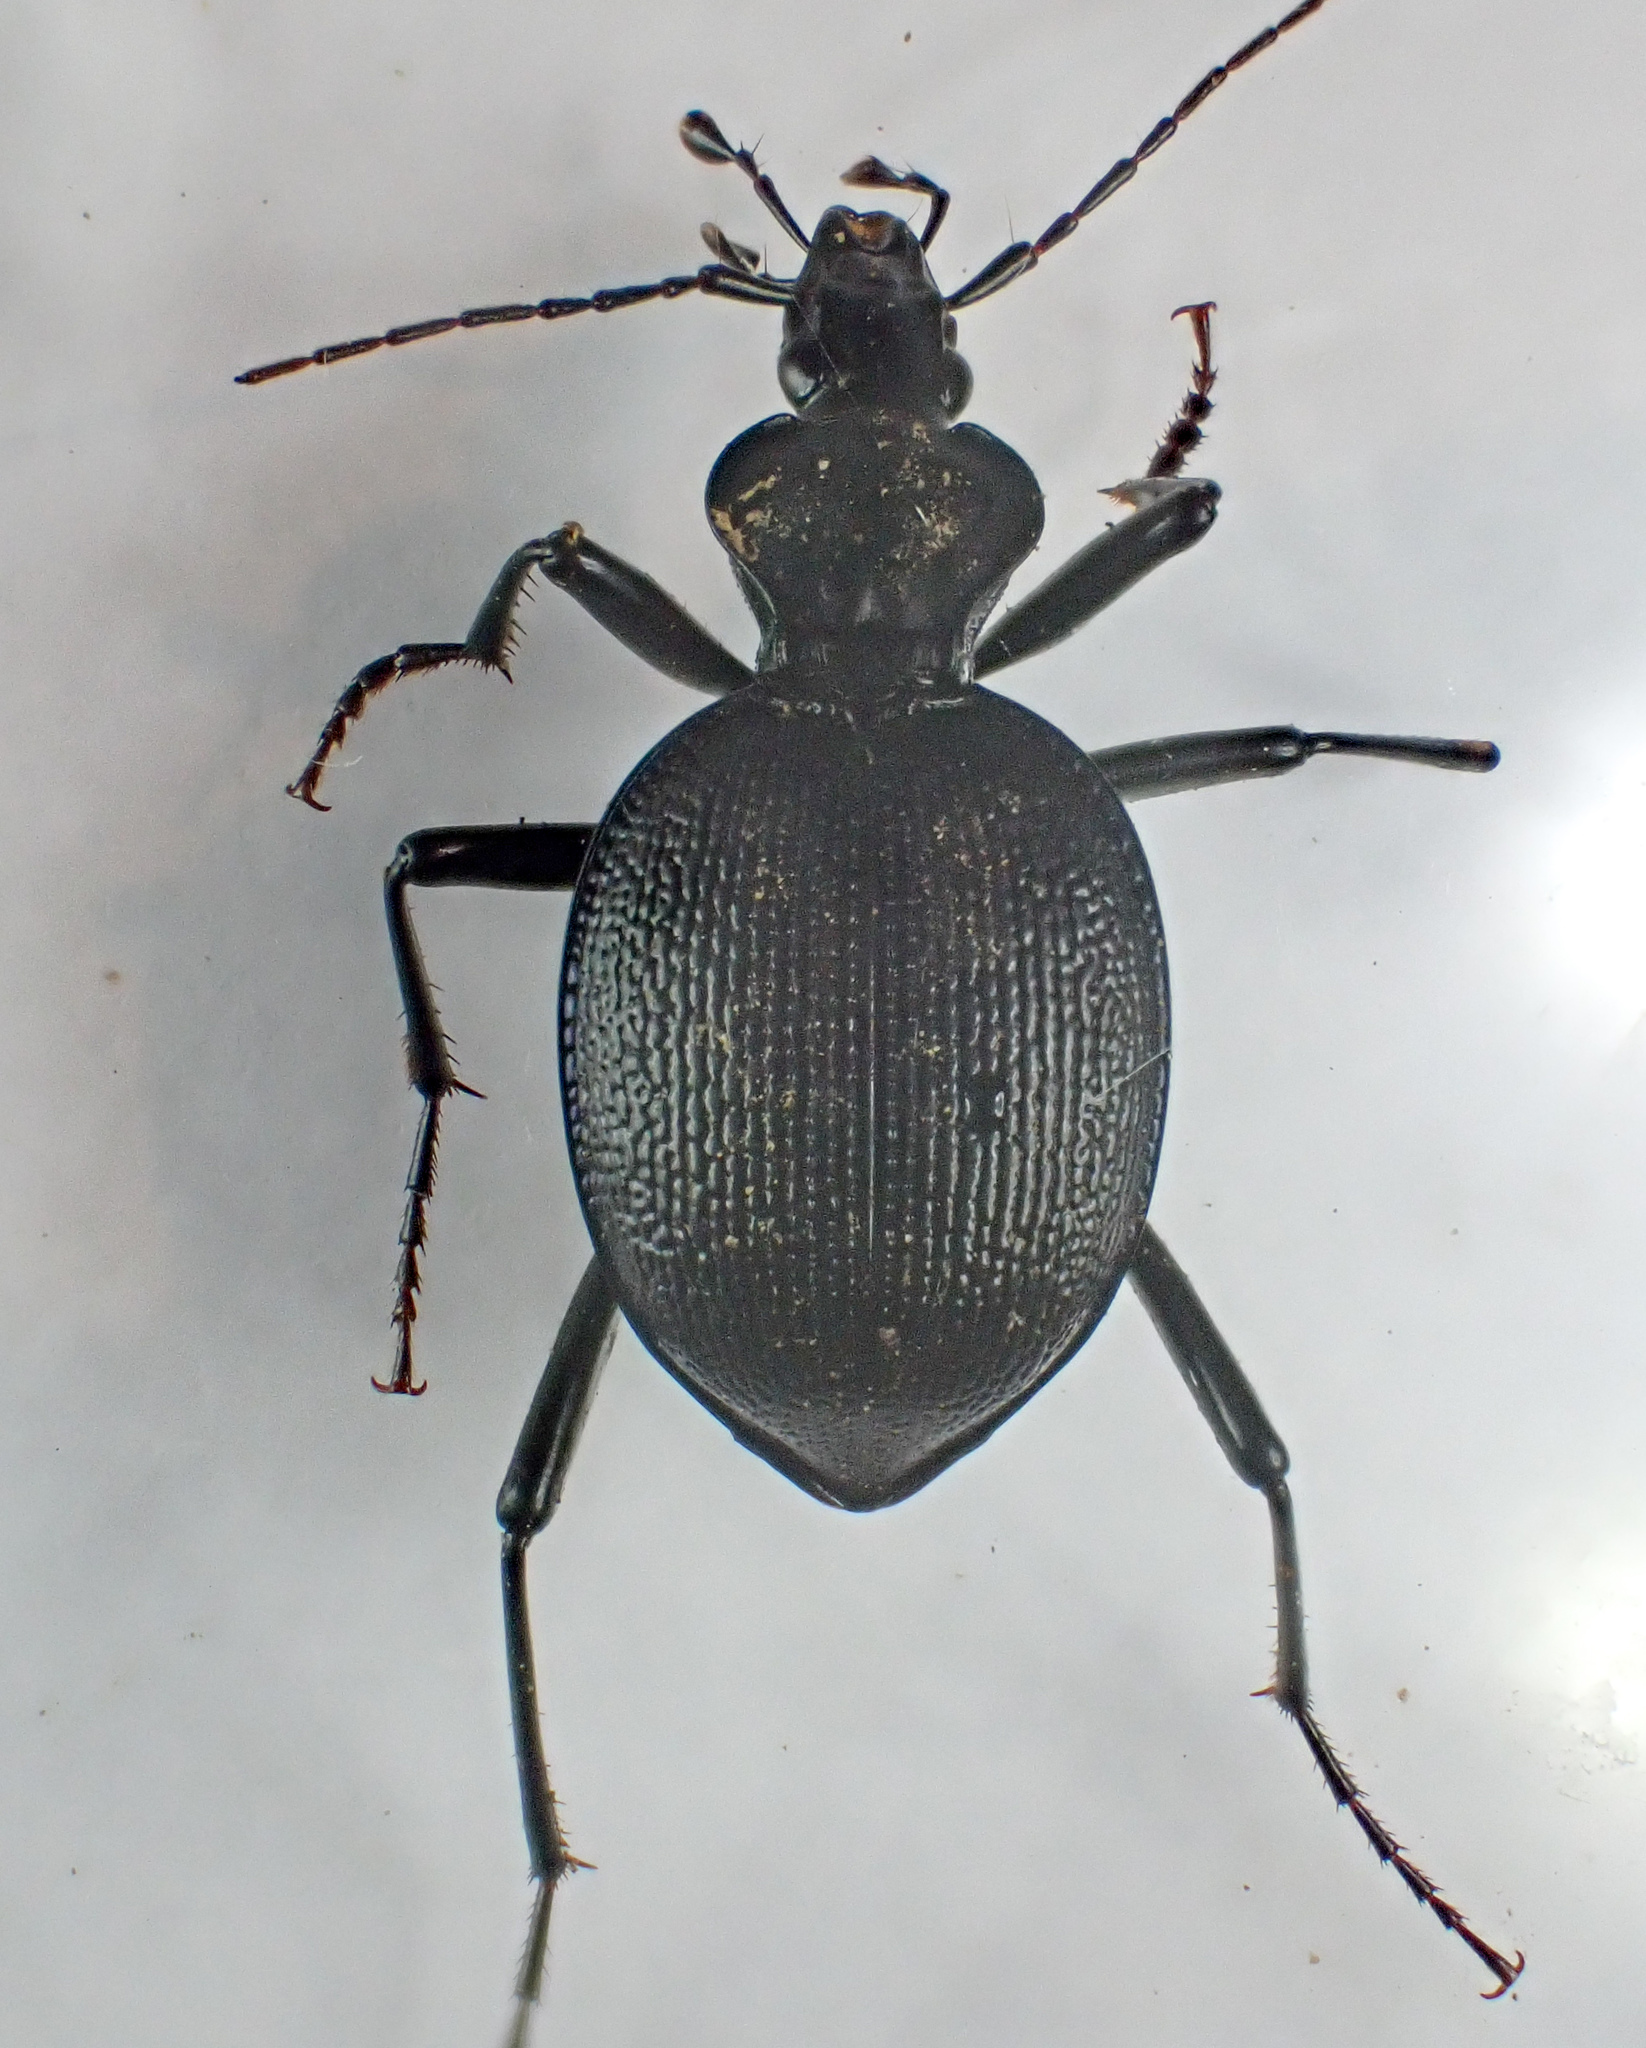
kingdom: Animalia
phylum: Arthropoda
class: Insecta
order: Coleoptera
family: Carabidae
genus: Scaphinotus
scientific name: Scaphinotus interruptus
